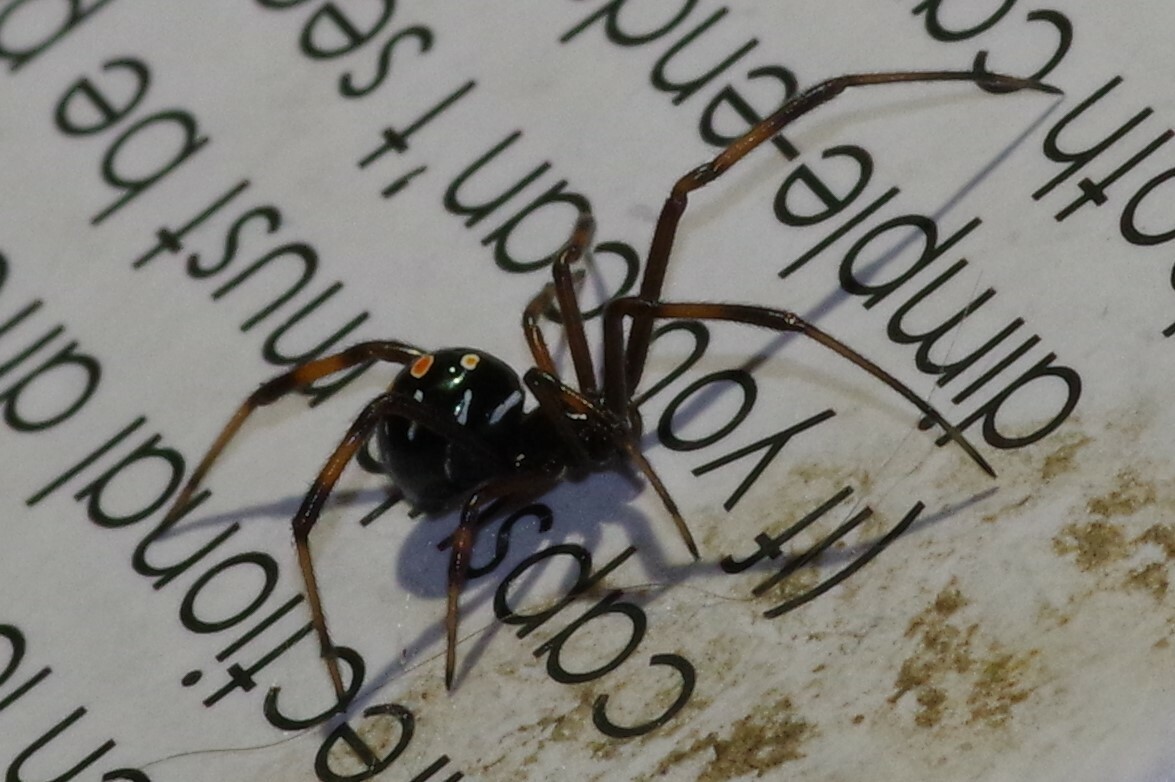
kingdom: Animalia
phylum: Arthropoda
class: Arachnida
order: Araneae
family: Theridiidae
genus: Latrodectus
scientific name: Latrodectus variolus
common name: Northern black widow
